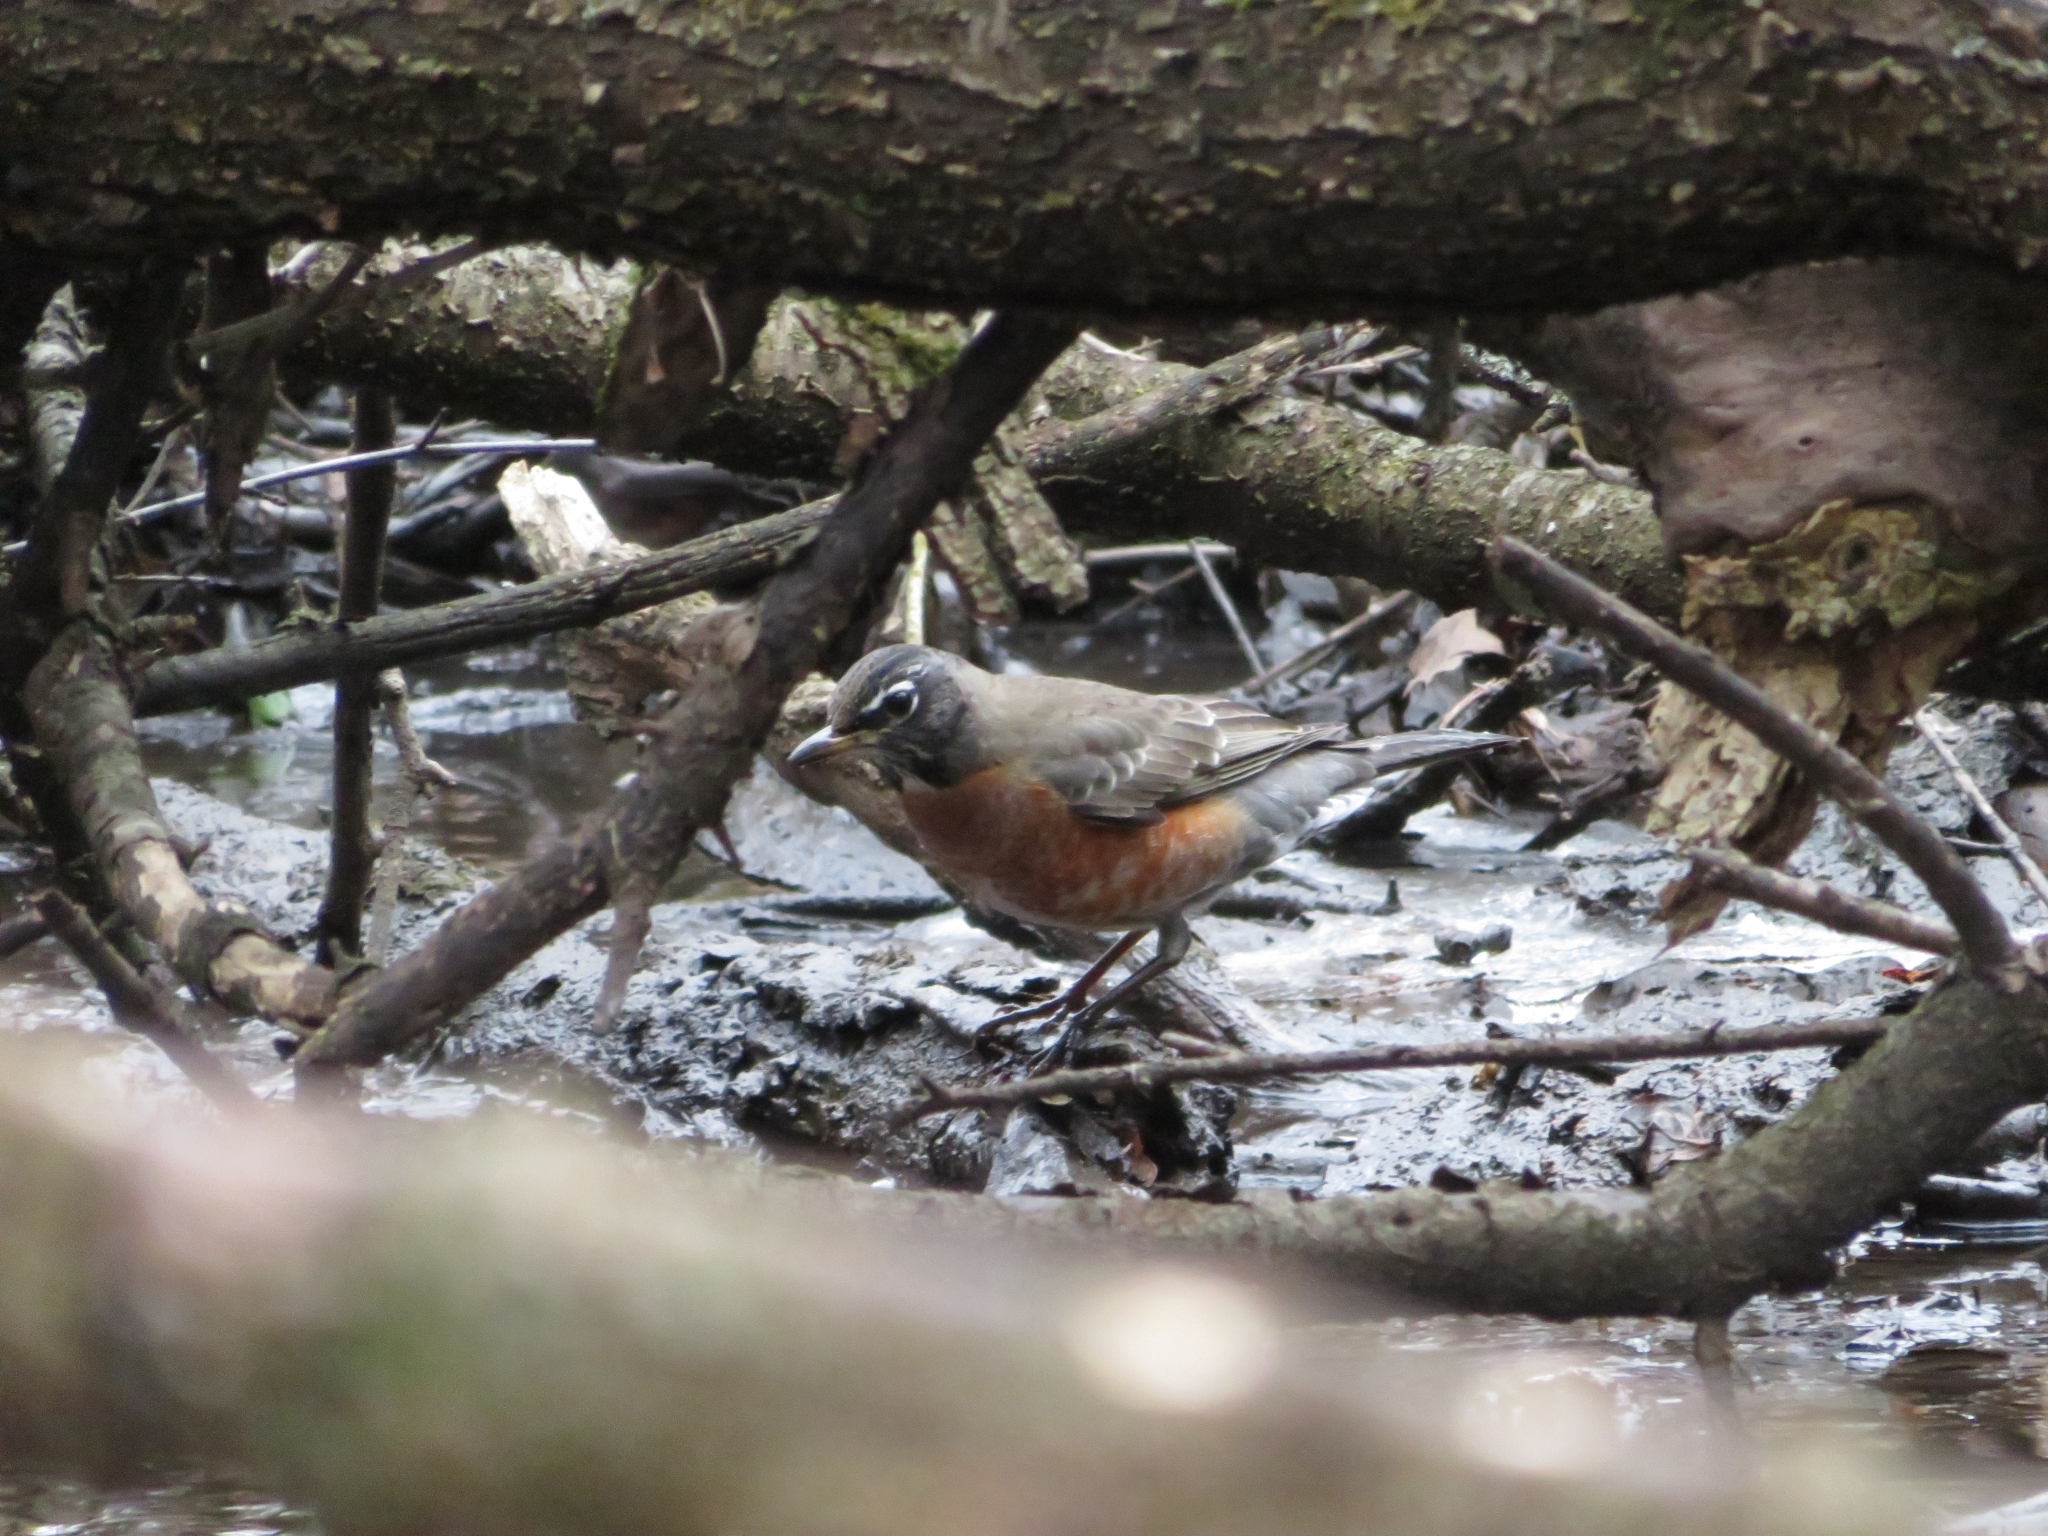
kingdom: Animalia
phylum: Chordata
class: Aves
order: Passeriformes
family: Turdidae
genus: Turdus
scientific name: Turdus migratorius
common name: American robin
